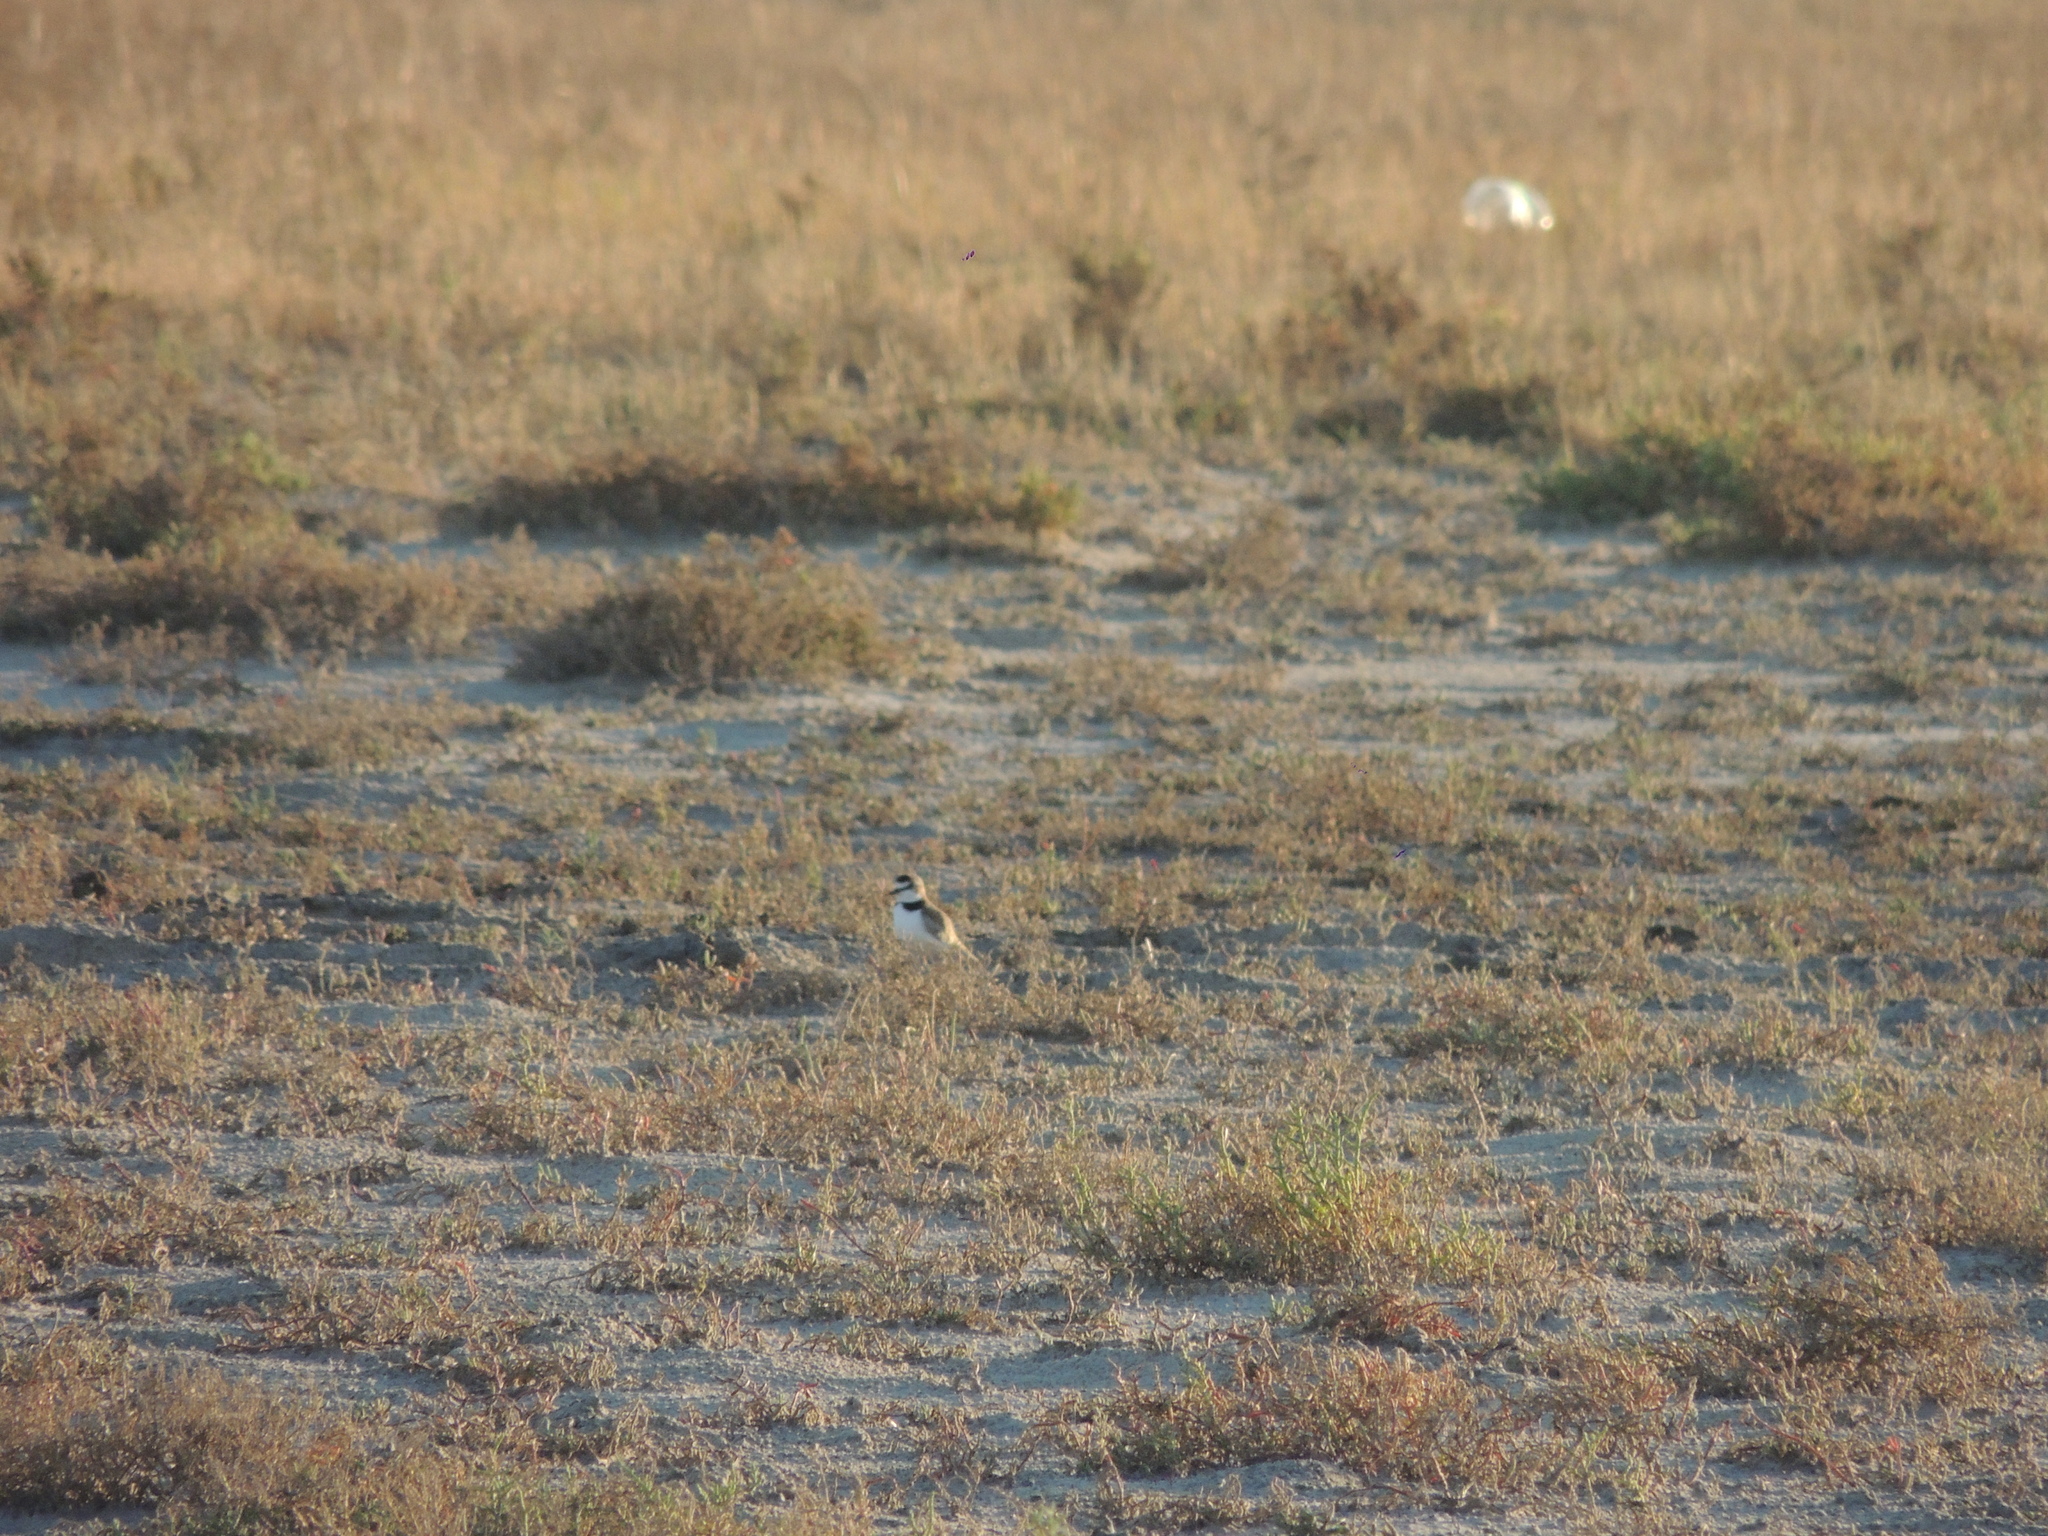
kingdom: Animalia
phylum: Chordata
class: Aves
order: Charadriiformes
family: Charadriidae
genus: Anarhynchus
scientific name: Anarhynchus
